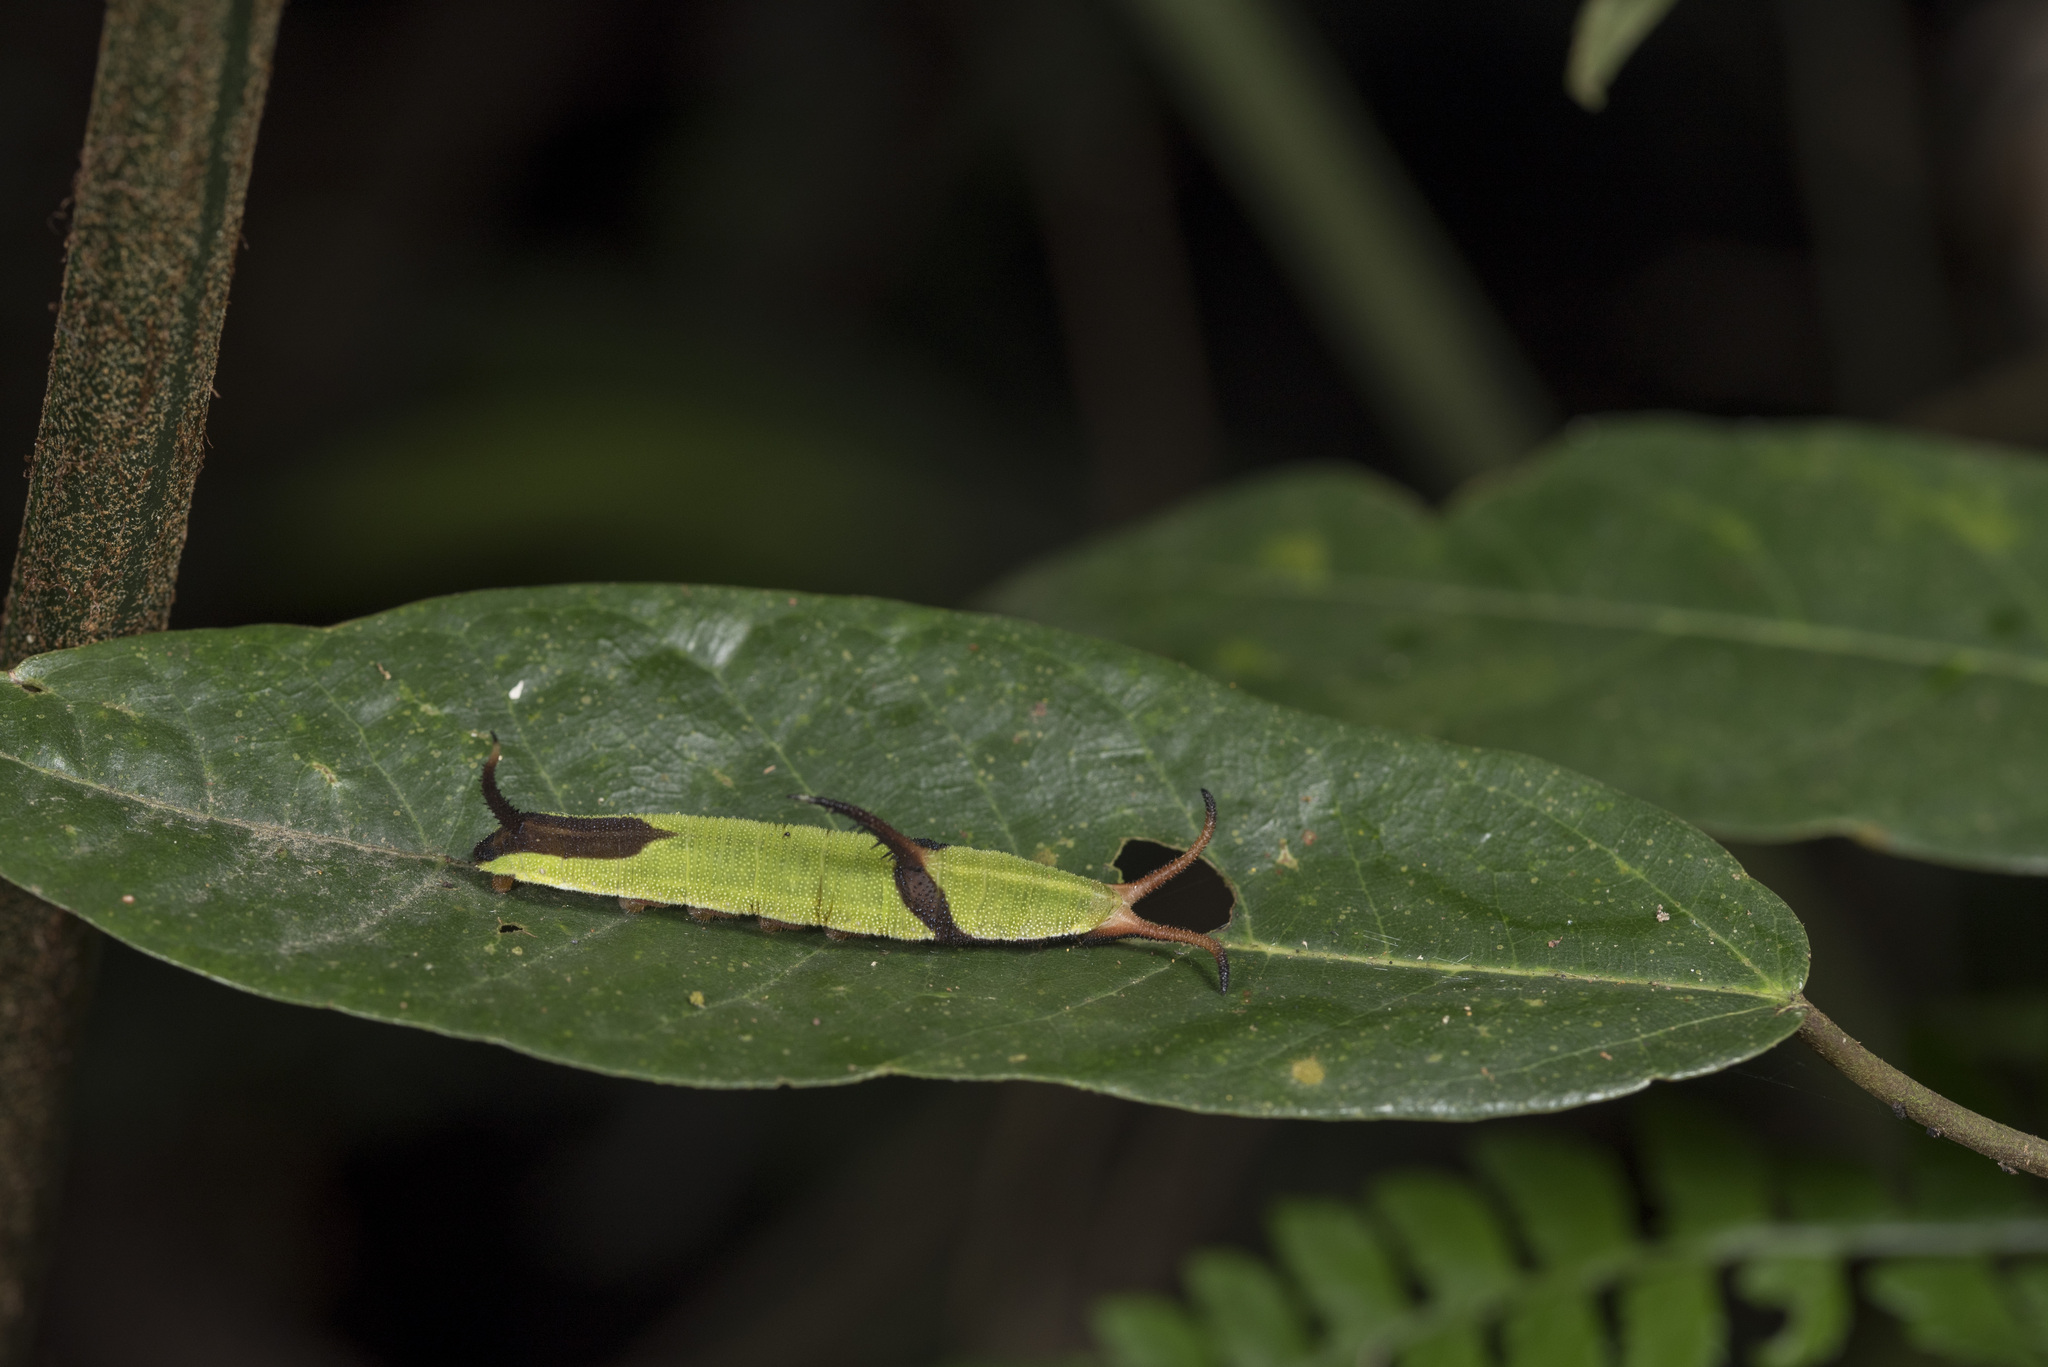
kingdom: Animalia
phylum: Arthropoda
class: Insecta
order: Lepidoptera
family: Nymphalidae
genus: Cyrestis
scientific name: Cyrestis thyodamas
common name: Common mapwing
